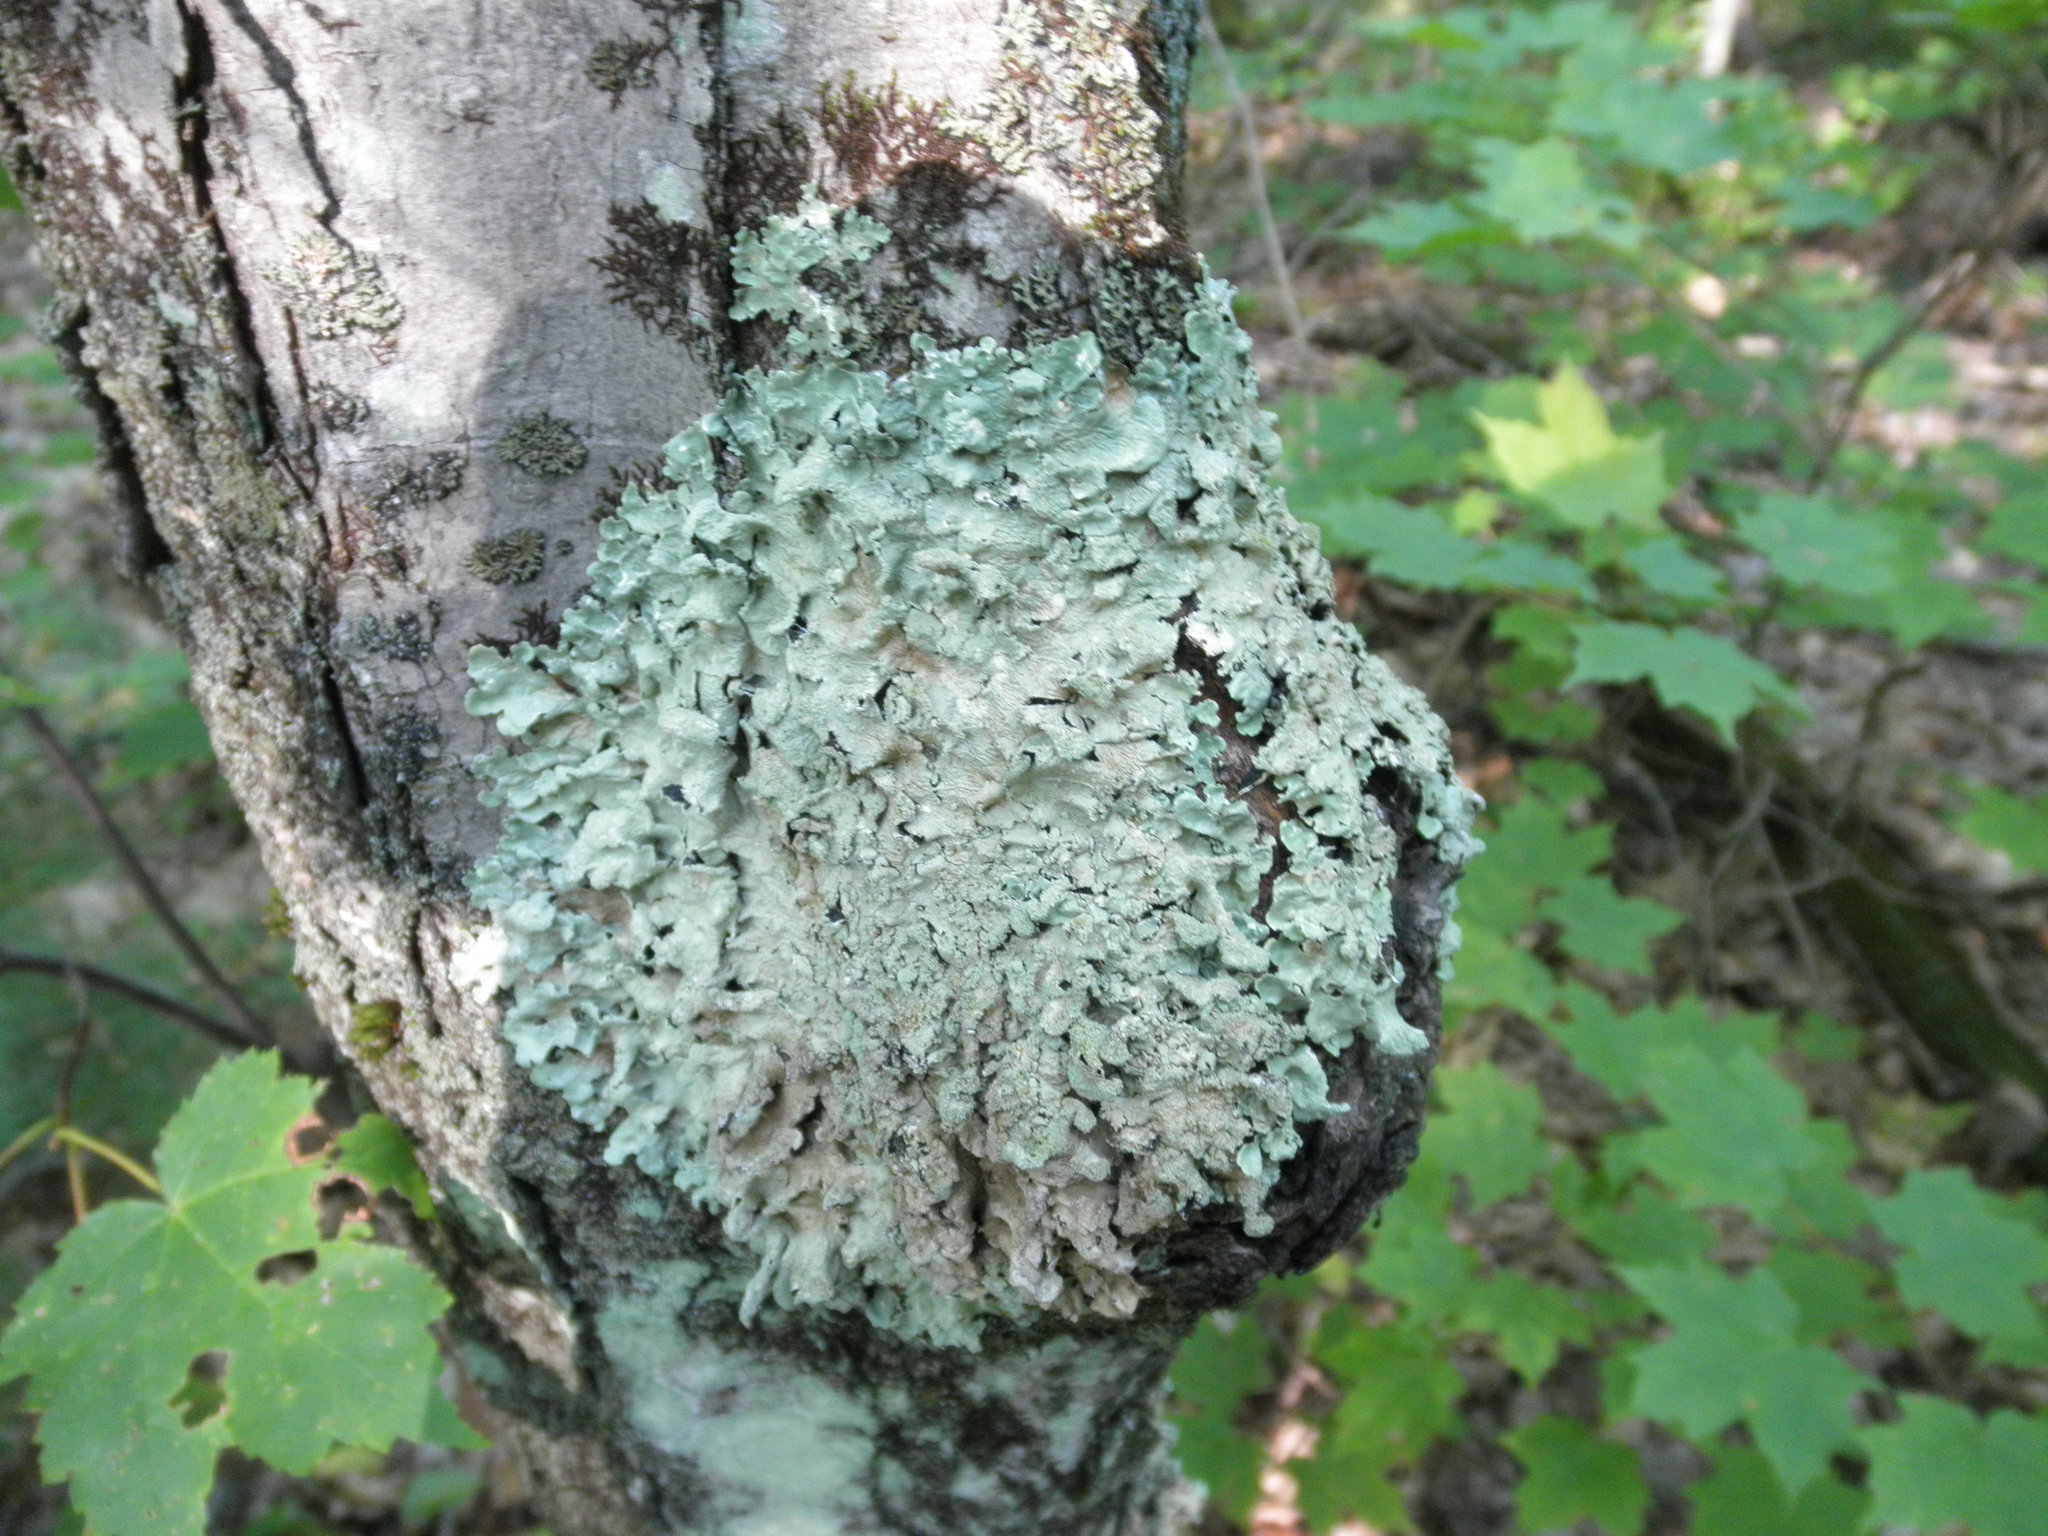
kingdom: Fungi
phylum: Ascomycota
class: Lecanoromycetes
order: Lecanorales
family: Parmeliaceae
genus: Flavoparmelia
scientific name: Flavoparmelia caperata
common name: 40-mile per hour lichen
